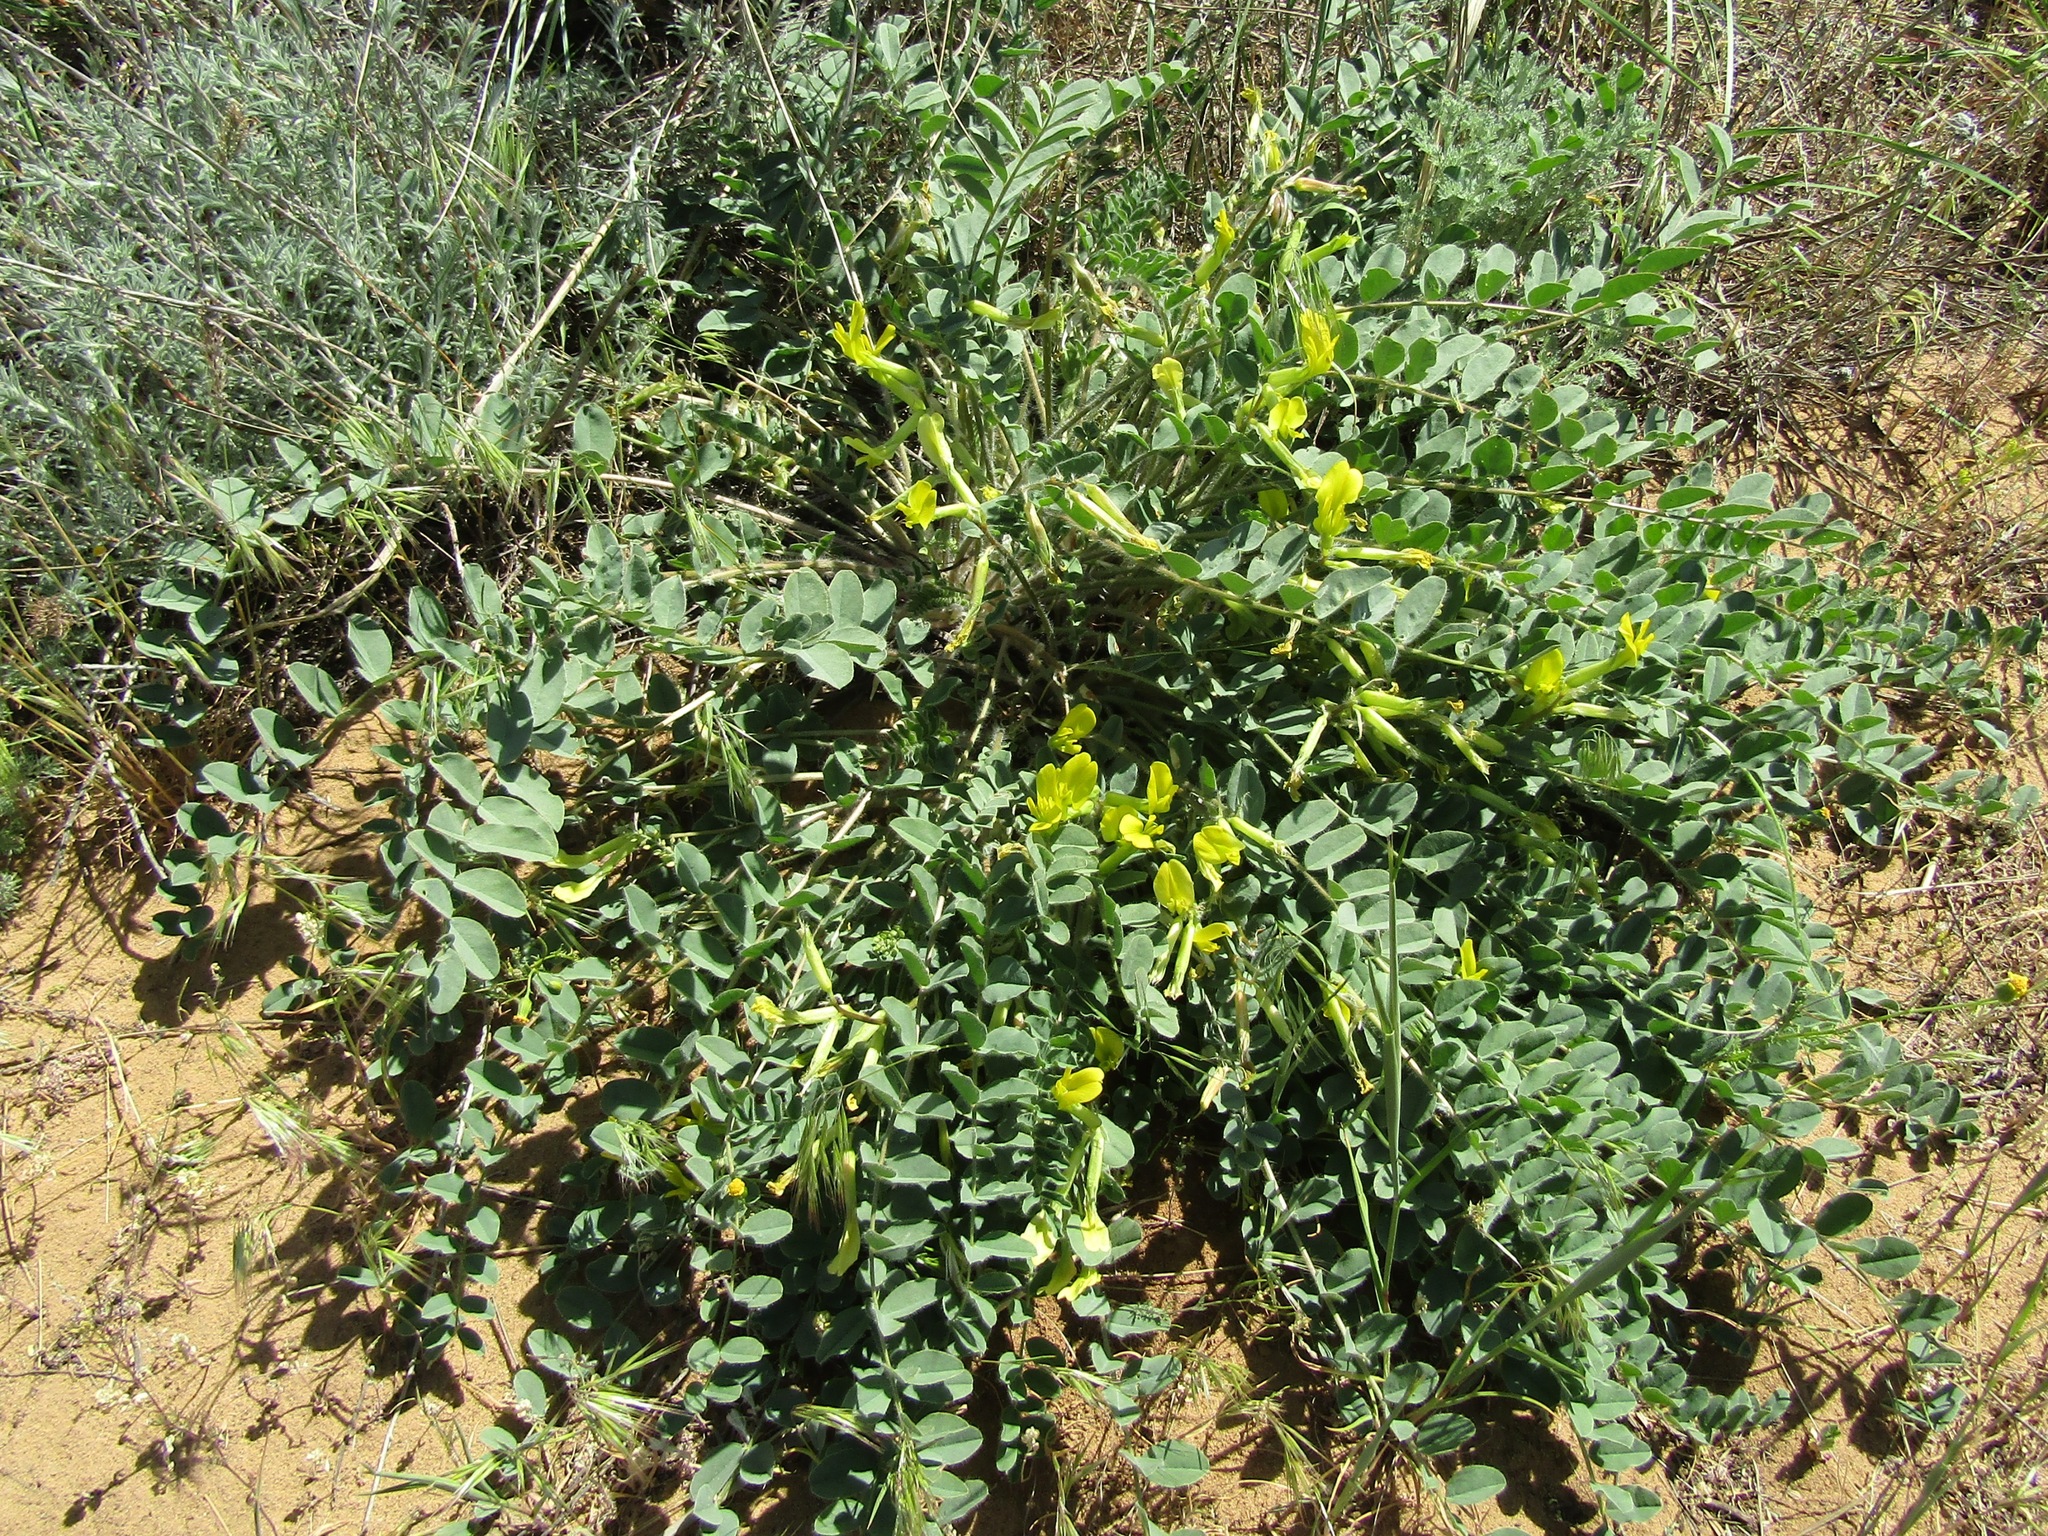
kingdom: Plantae
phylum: Tracheophyta
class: Magnoliopsida
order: Fabales
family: Fabaceae
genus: Astragalus
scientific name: Astragalus longipetalus
